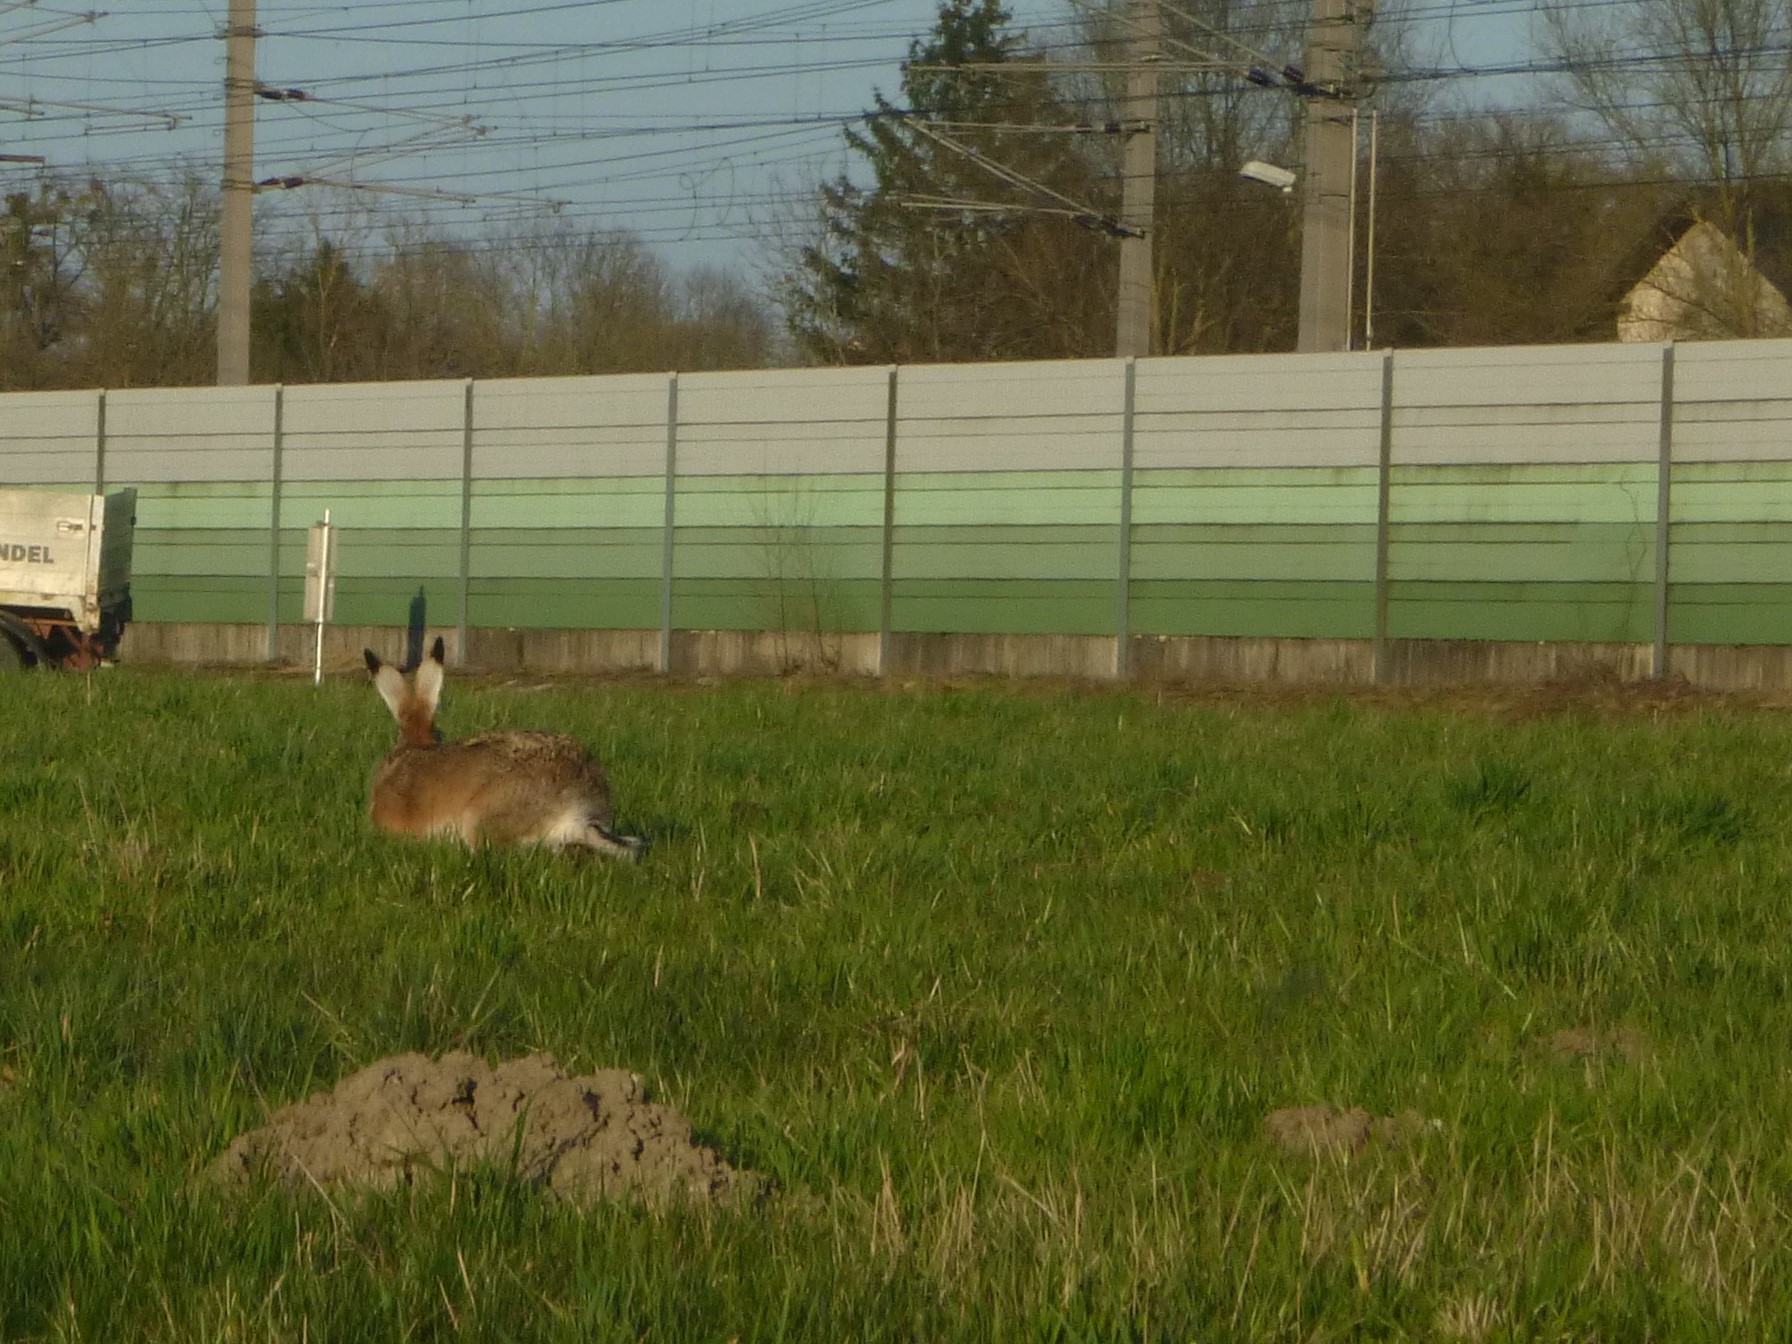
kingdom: Animalia
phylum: Chordata
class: Mammalia
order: Lagomorpha
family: Leporidae
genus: Lepus
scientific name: Lepus europaeus
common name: European hare
